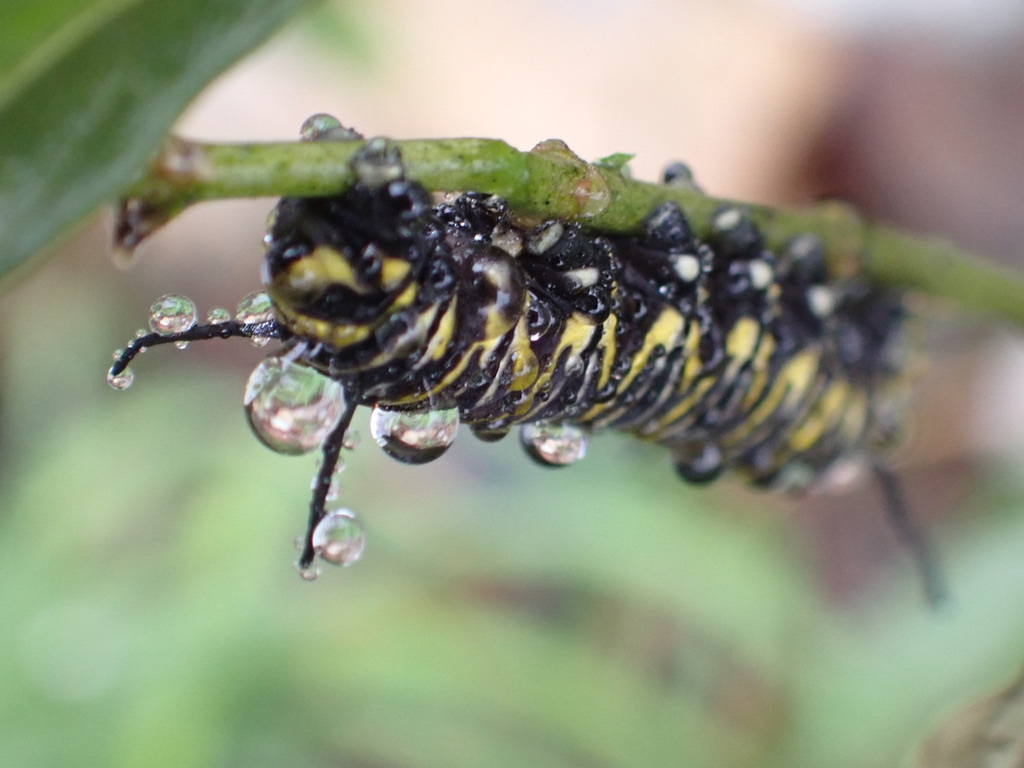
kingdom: Animalia
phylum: Arthropoda
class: Insecta
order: Lepidoptera
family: Nymphalidae
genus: Danaus
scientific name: Danaus plexippus
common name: Monarch
